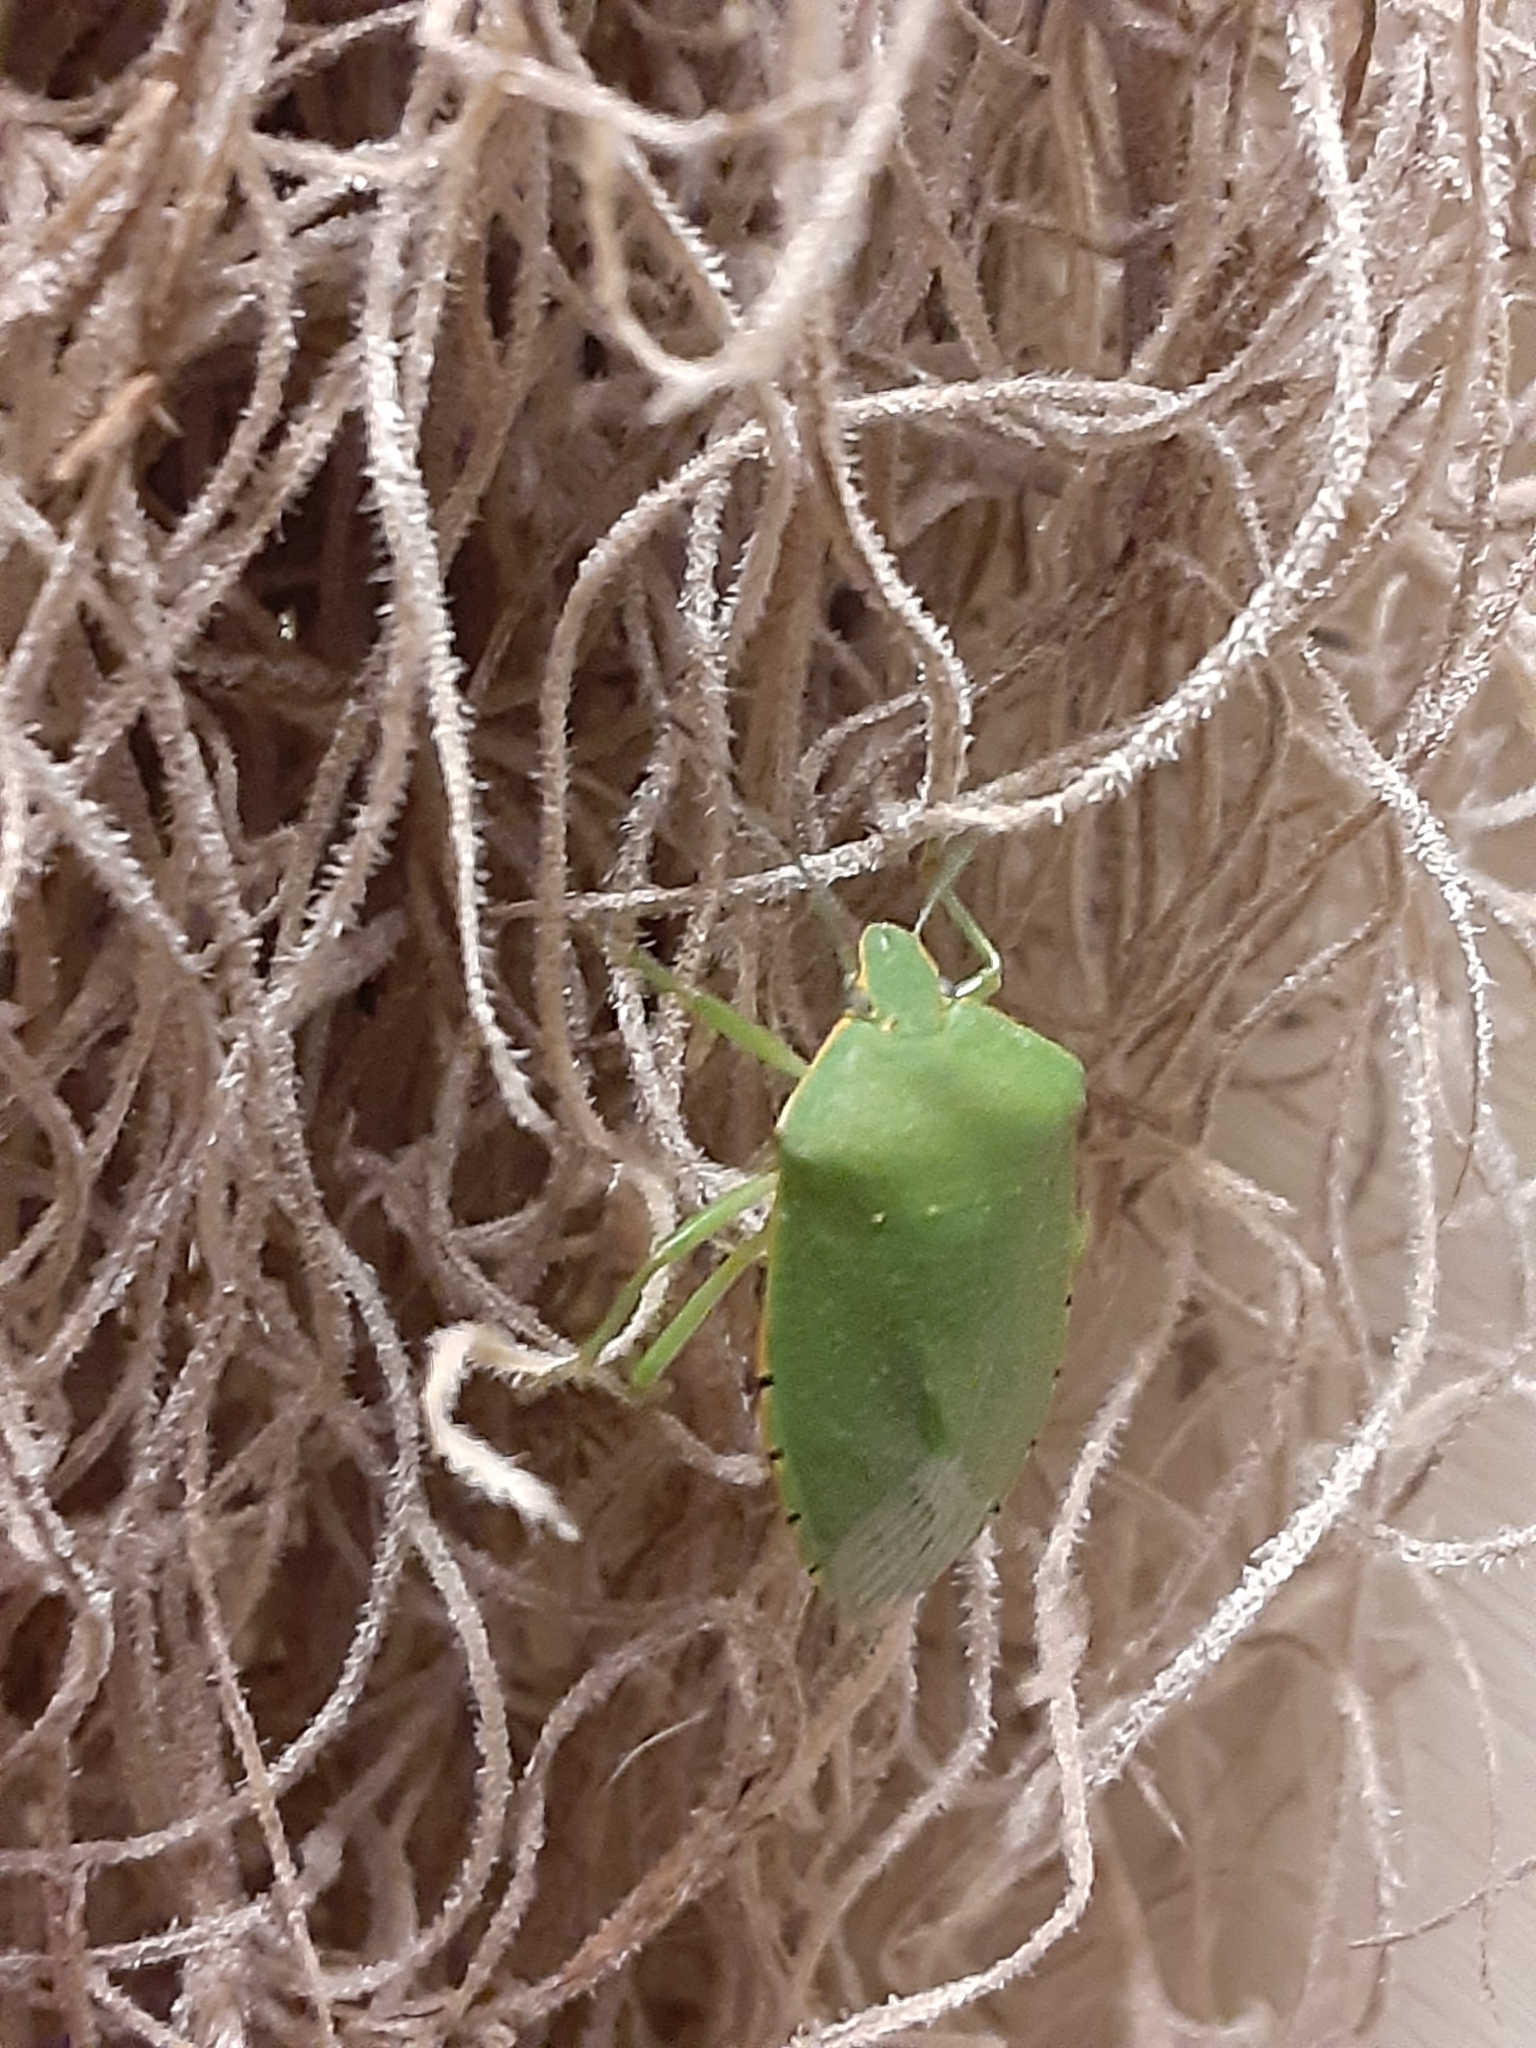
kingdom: Animalia
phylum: Arthropoda
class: Insecta
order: Hemiptera
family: Pentatomidae
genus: Chinavia
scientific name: Chinavia hilaris
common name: Green stink bug
